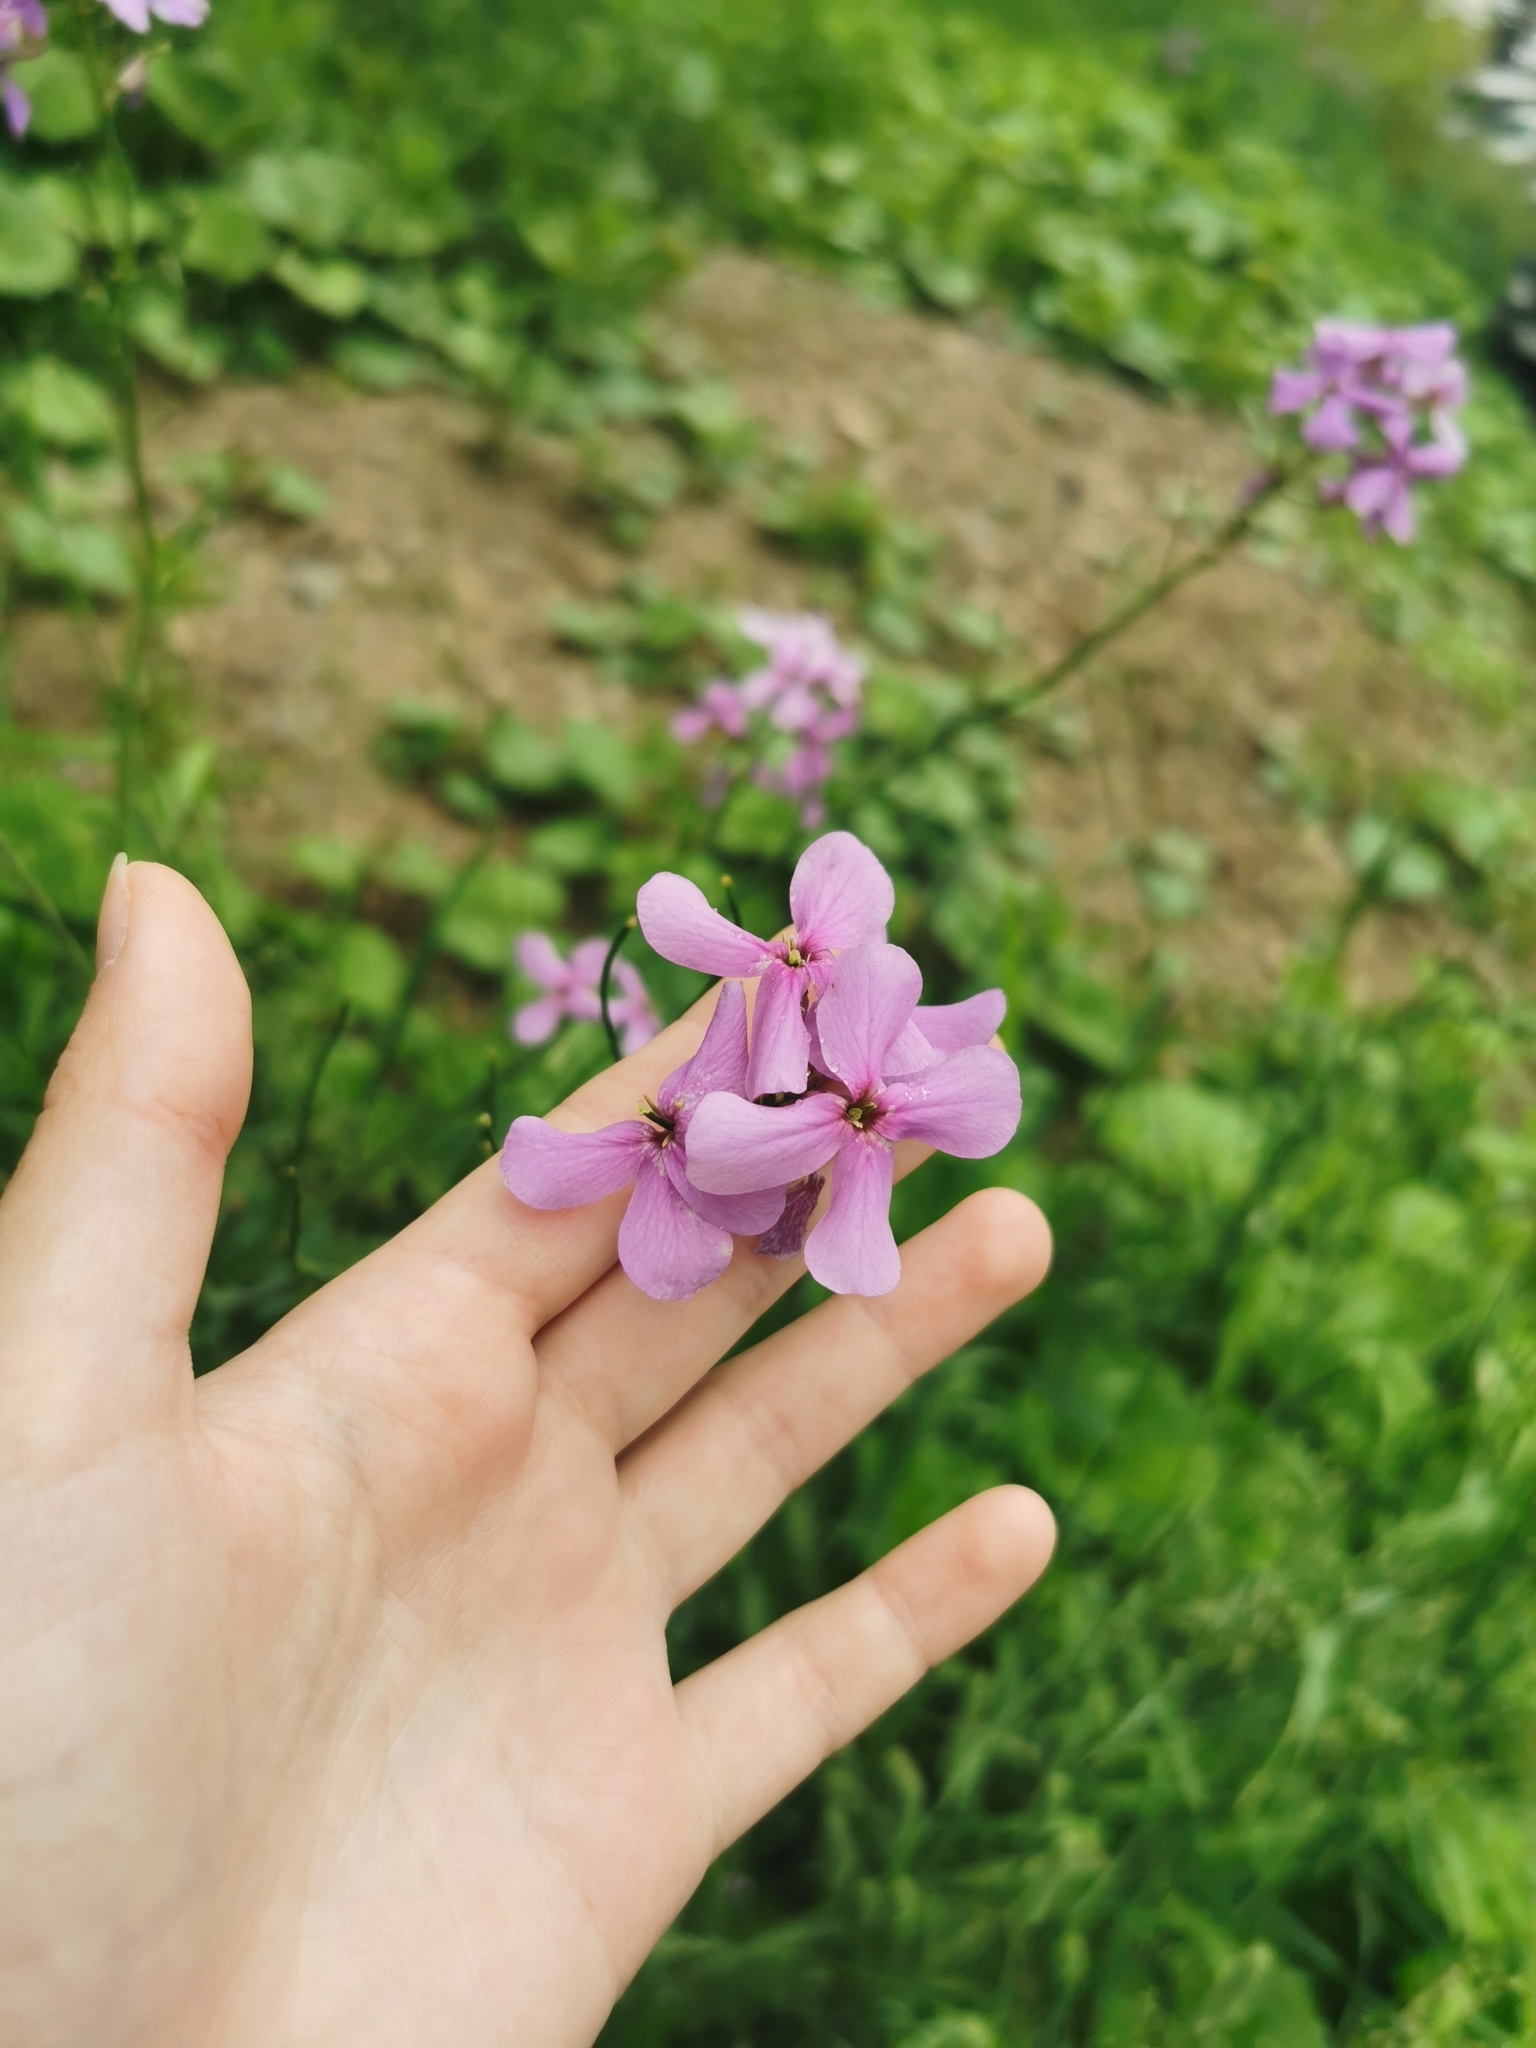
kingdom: Plantae
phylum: Tracheophyta
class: Magnoliopsida
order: Brassicales
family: Brassicaceae
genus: Hesperis
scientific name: Hesperis matronalis
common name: Dame's-violet
